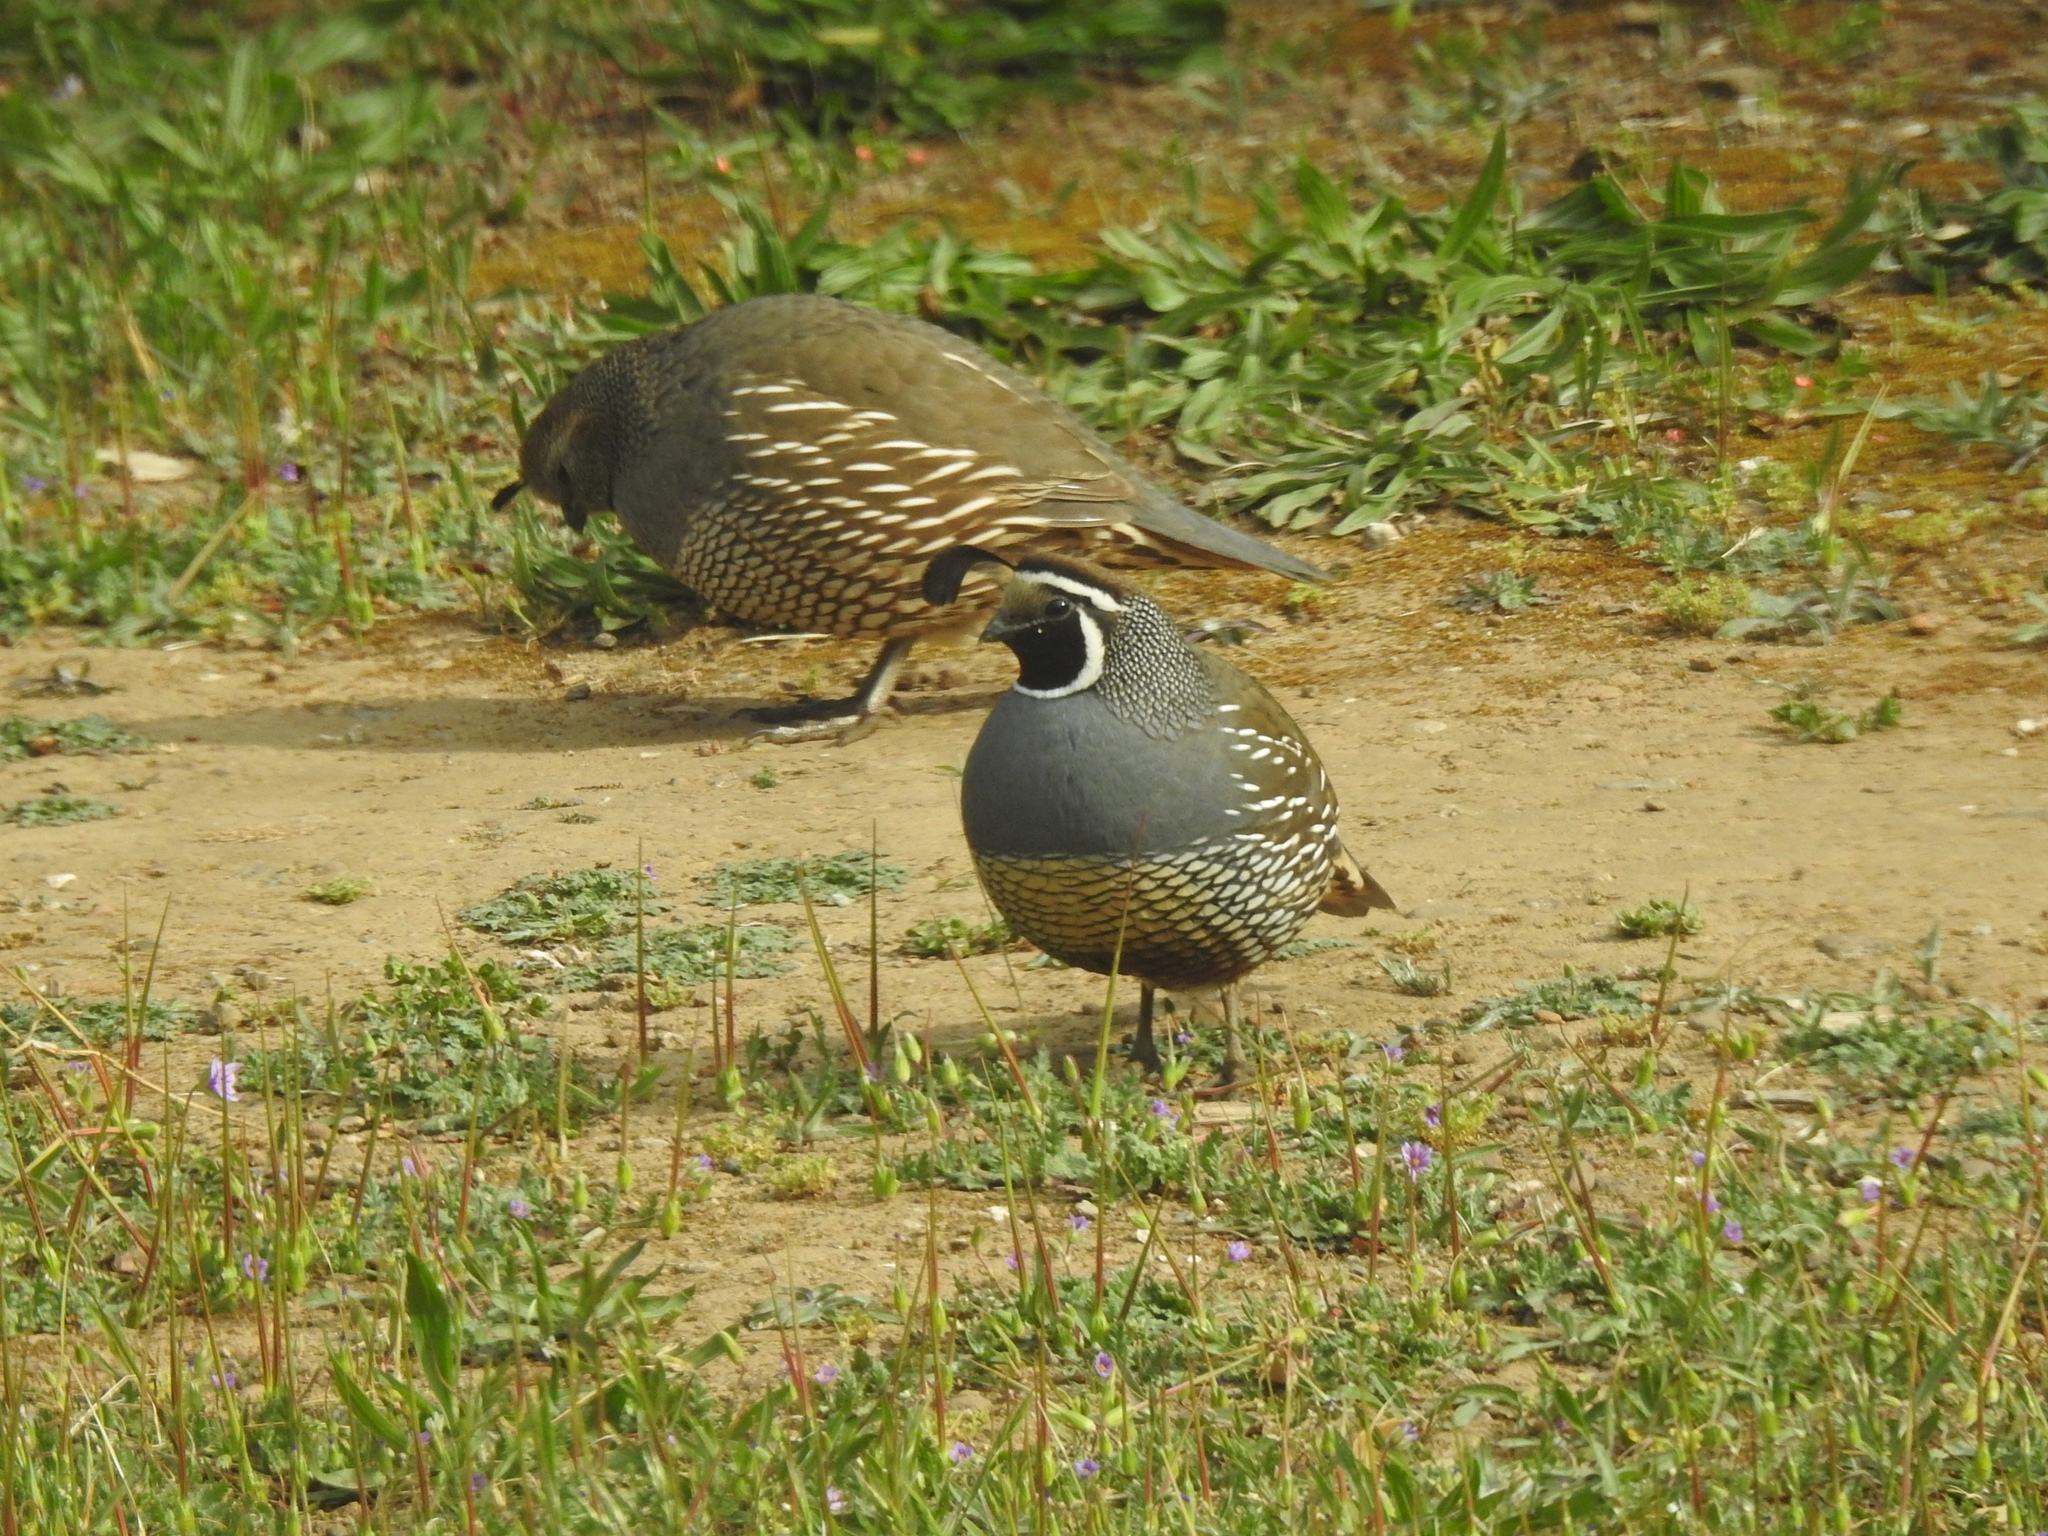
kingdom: Animalia
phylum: Chordata
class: Aves
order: Galliformes
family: Odontophoridae
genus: Callipepla
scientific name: Callipepla californica
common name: California quail
